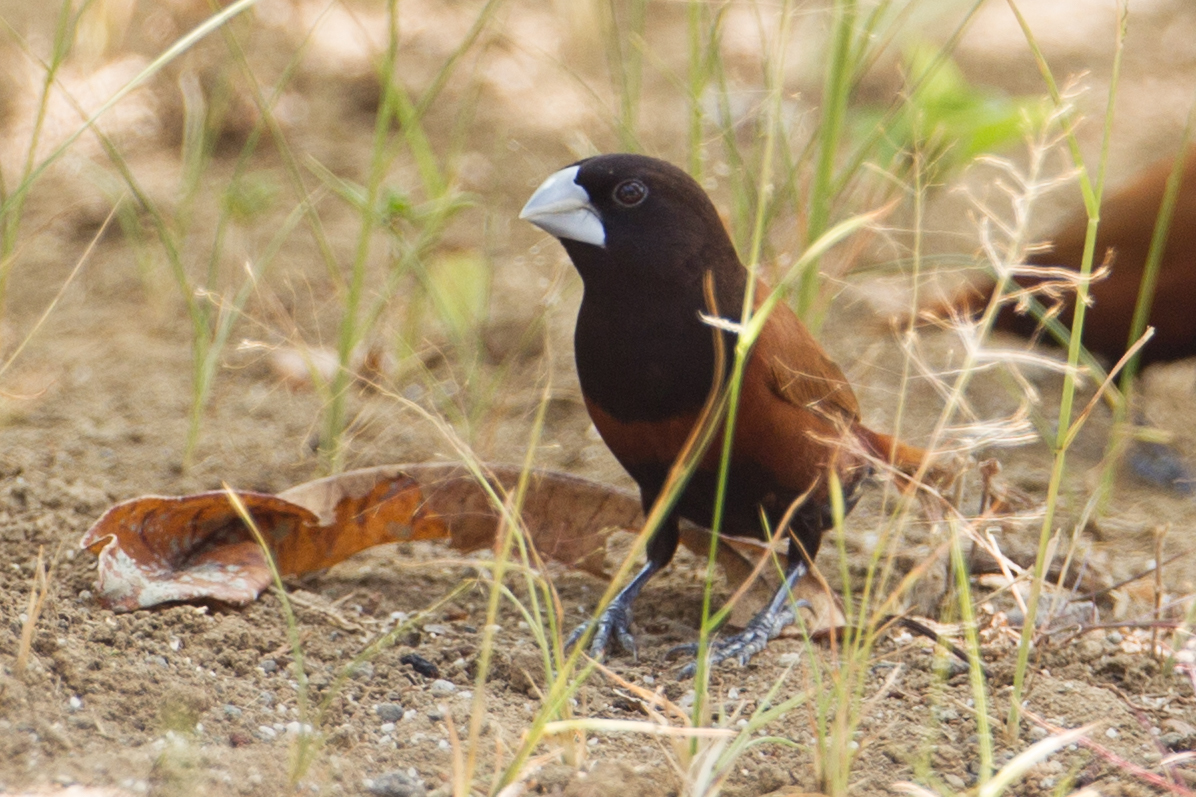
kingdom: Animalia
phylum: Chordata
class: Aves
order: Passeriformes
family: Estrildidae
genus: Lonchura
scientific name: Lonchura atricapilla
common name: Chestnut munia
